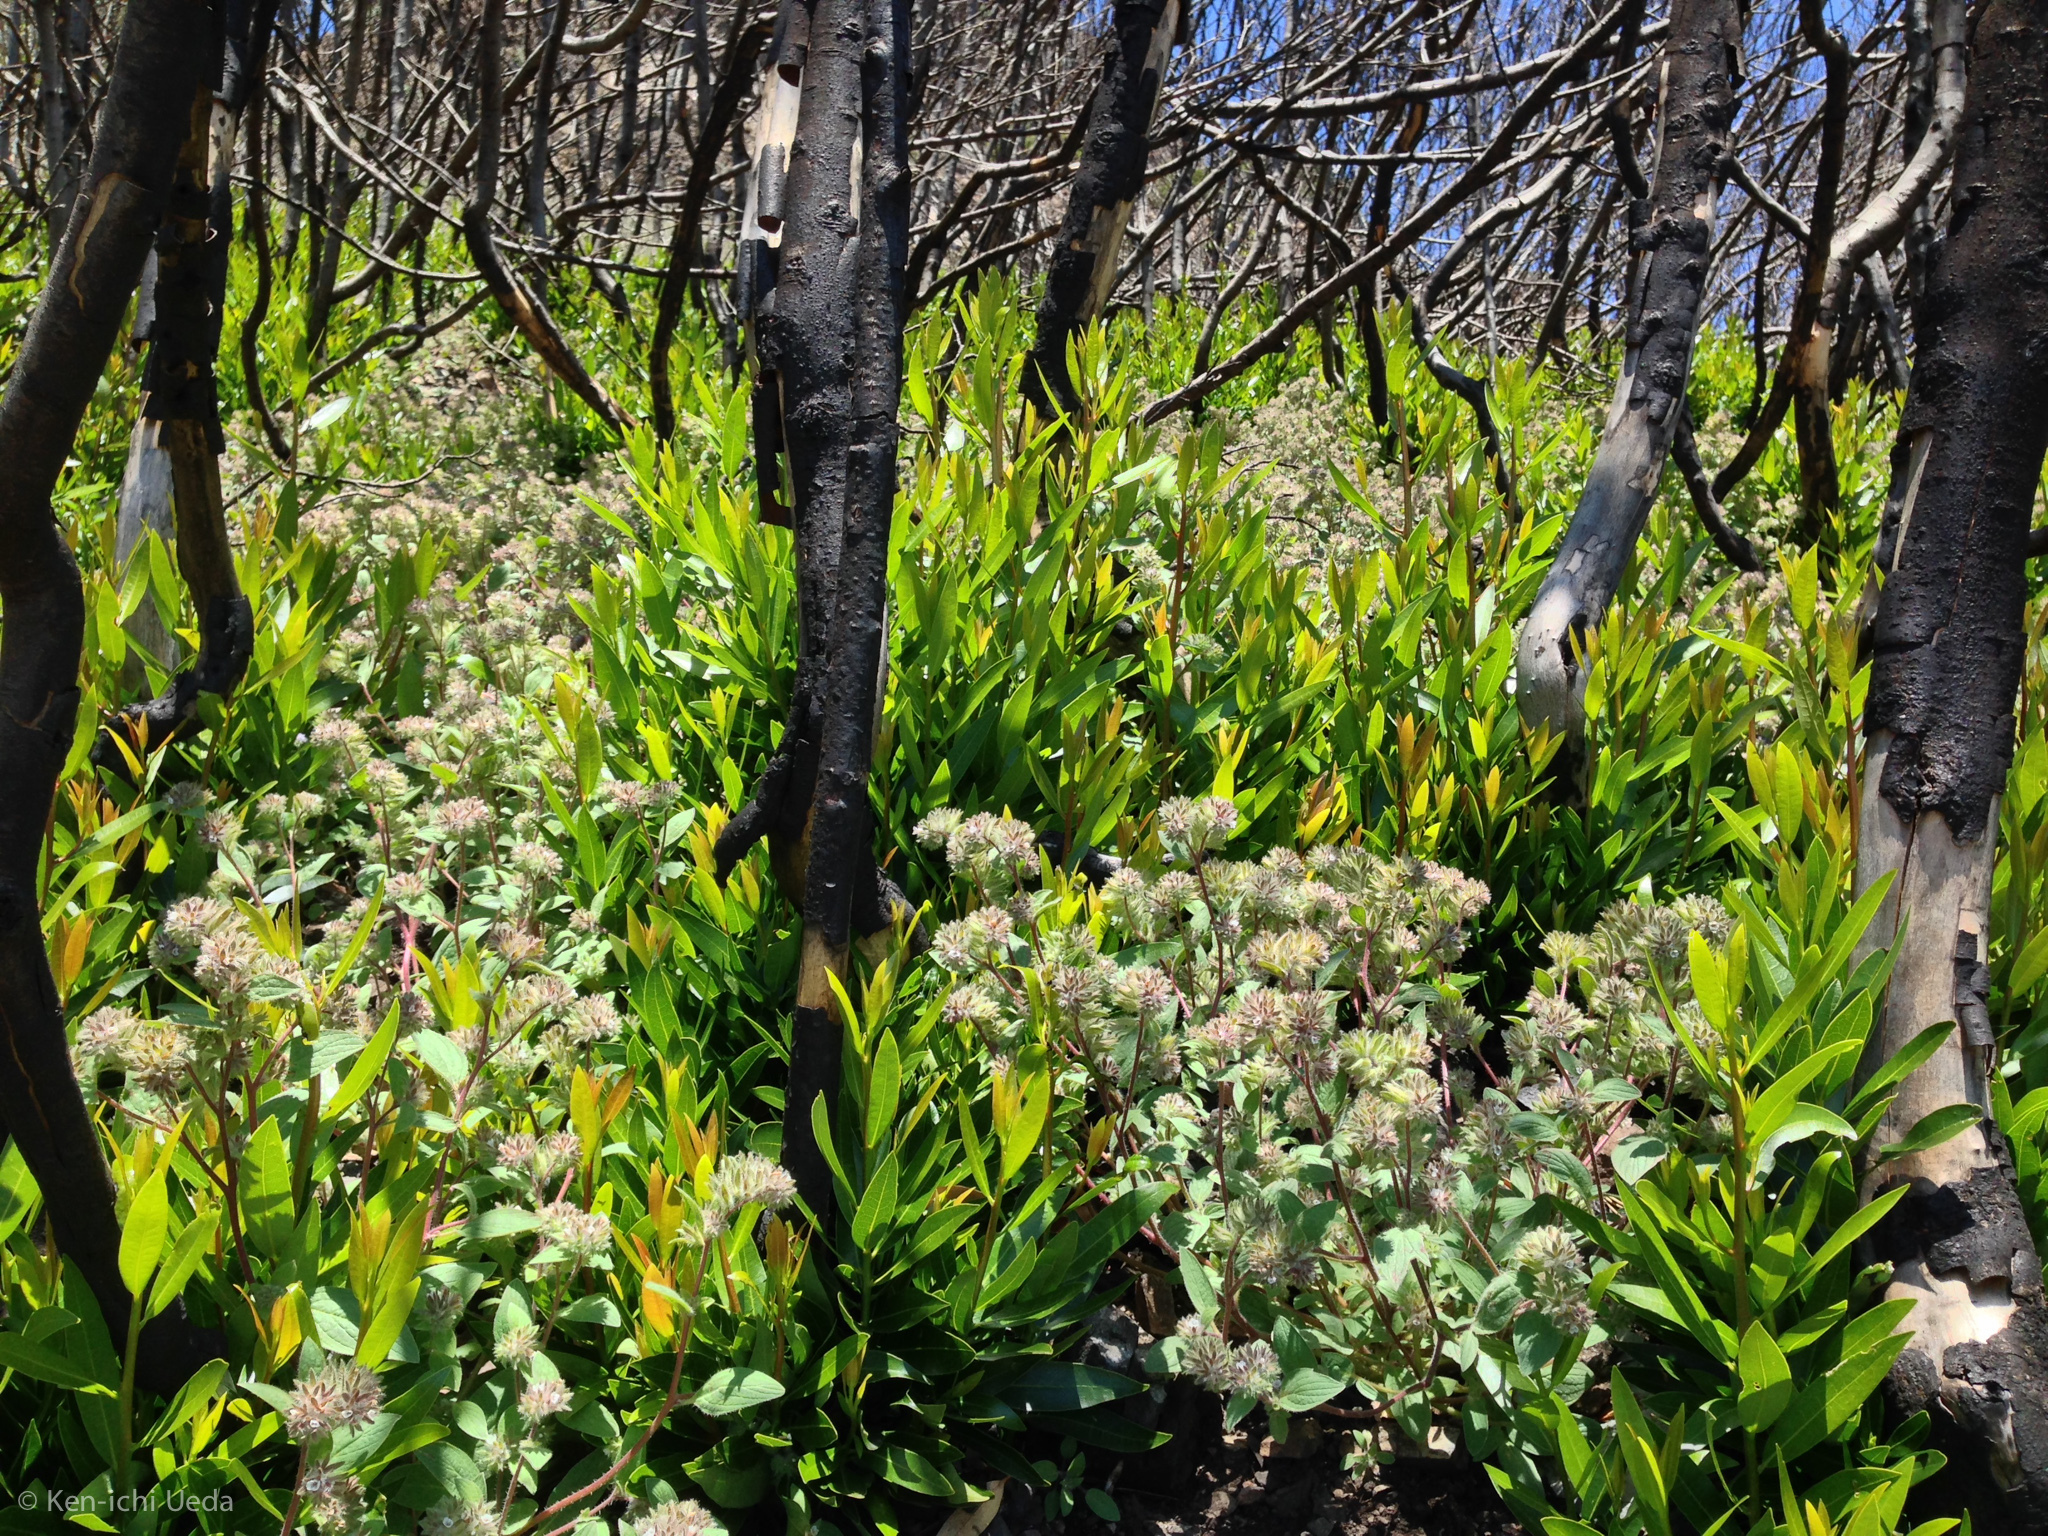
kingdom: Plantae
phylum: Tracheophyta
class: Magnoliopsida
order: Boraginales
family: Hydrophyllaceae
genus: Phacelia
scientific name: Phacelia phacelioides
